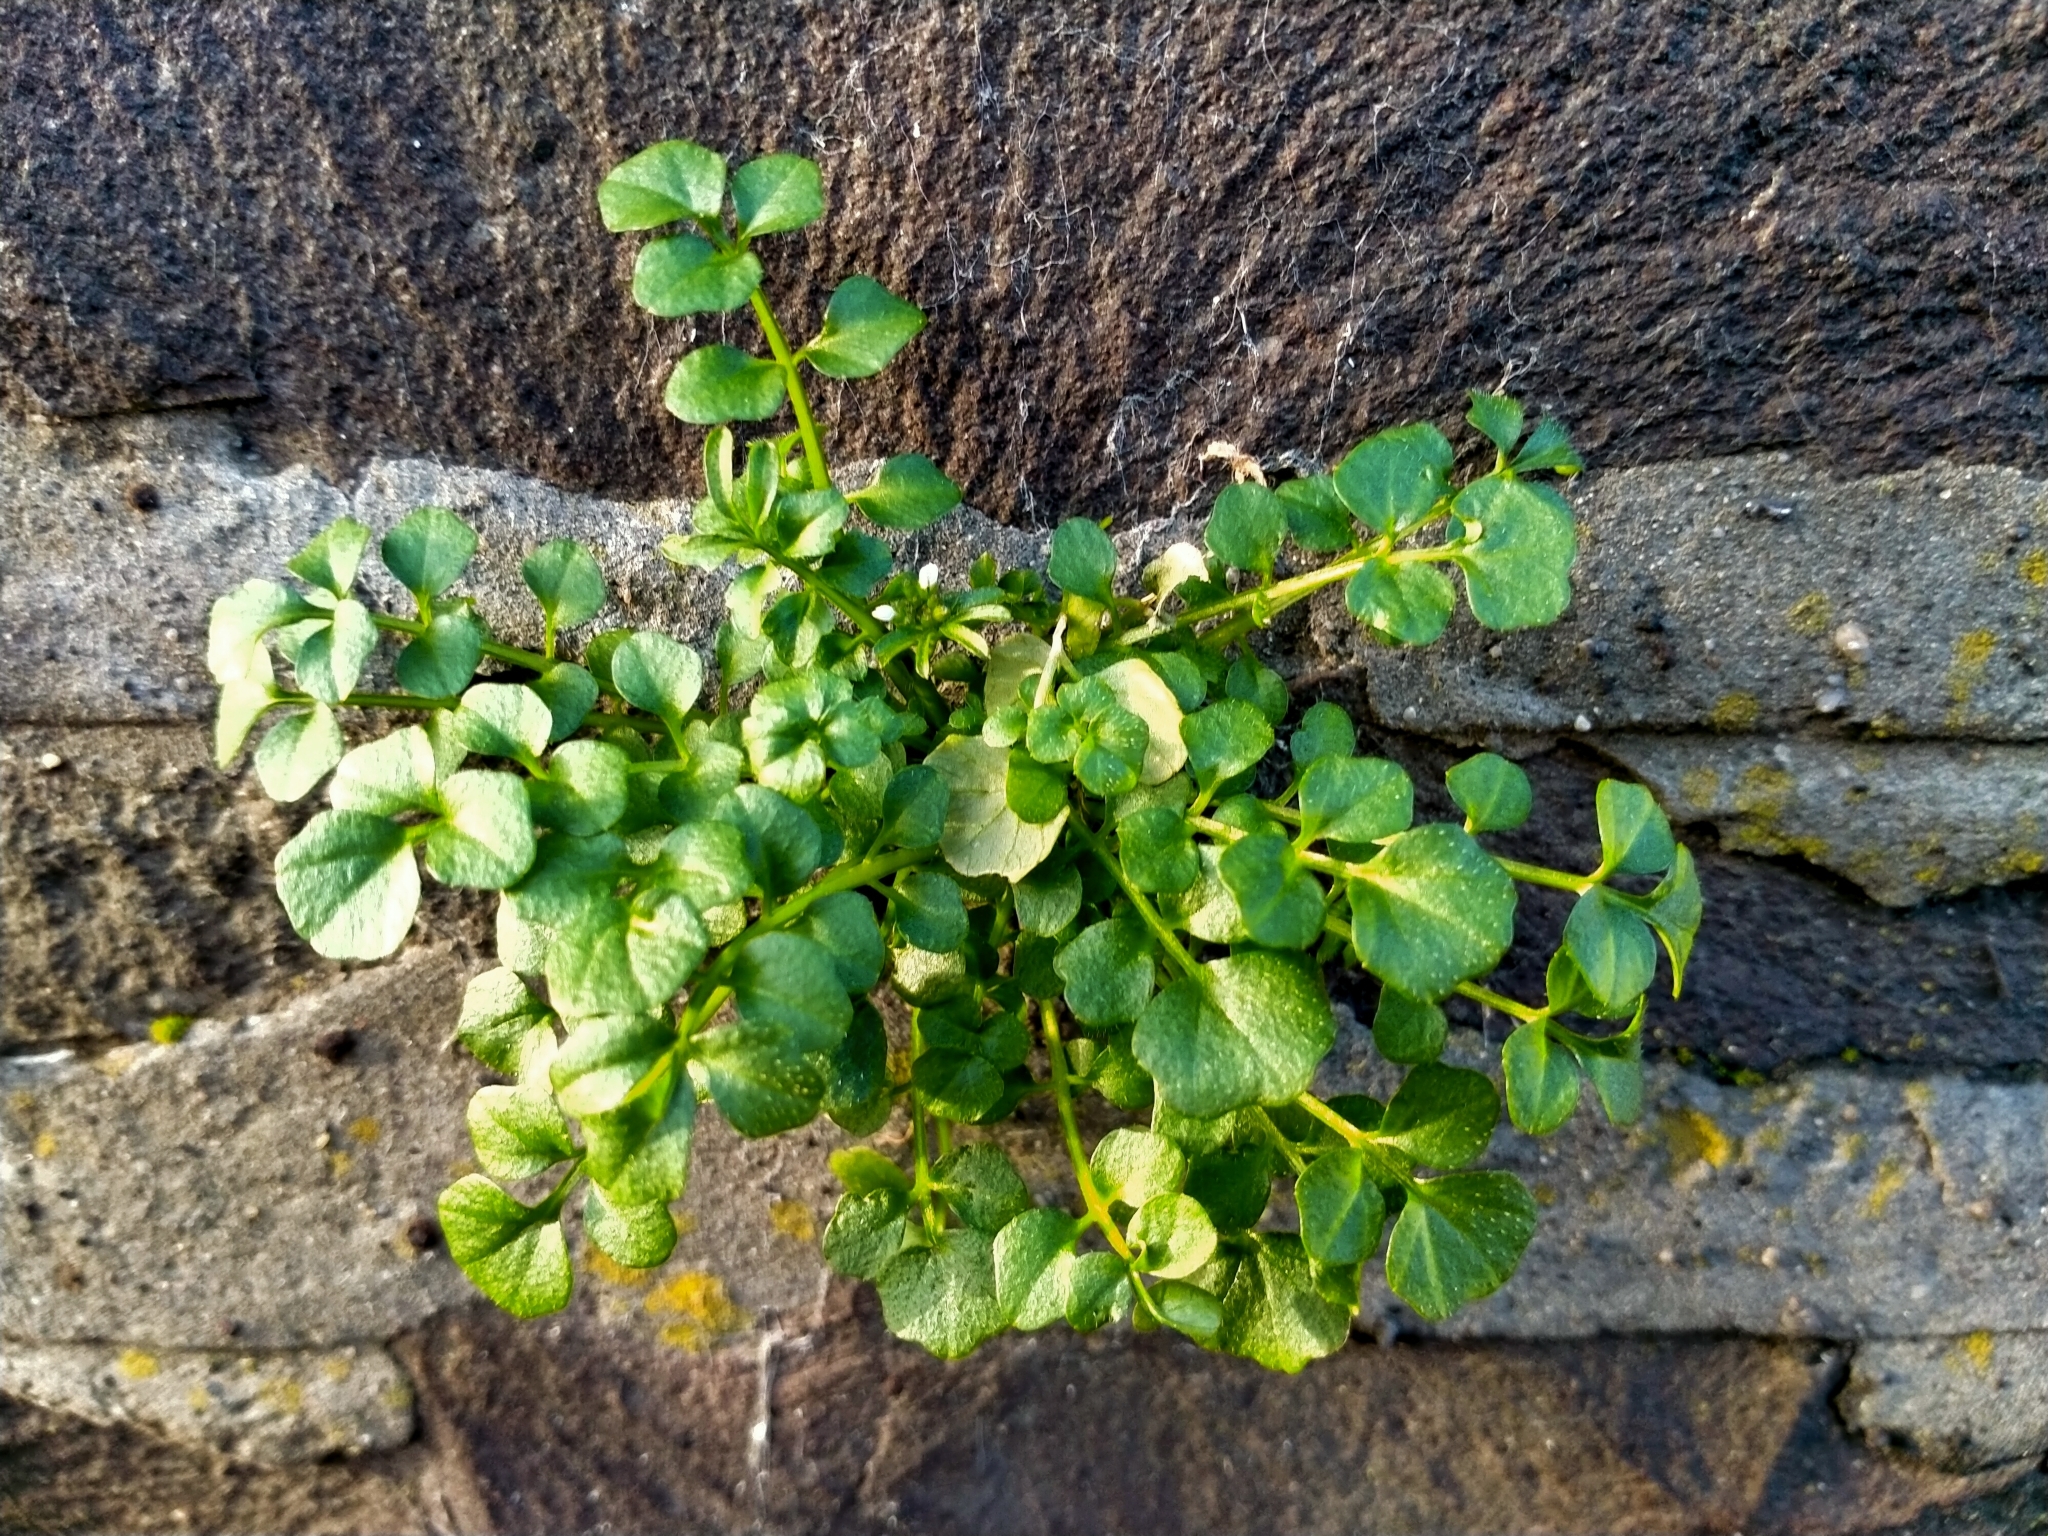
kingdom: Plantae
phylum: Tracheophyta
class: Magnoliopsida
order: Brassicales
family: Brassicaceae
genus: Cardamine
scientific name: Cardamine hirsuta
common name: Hairy bittercress
